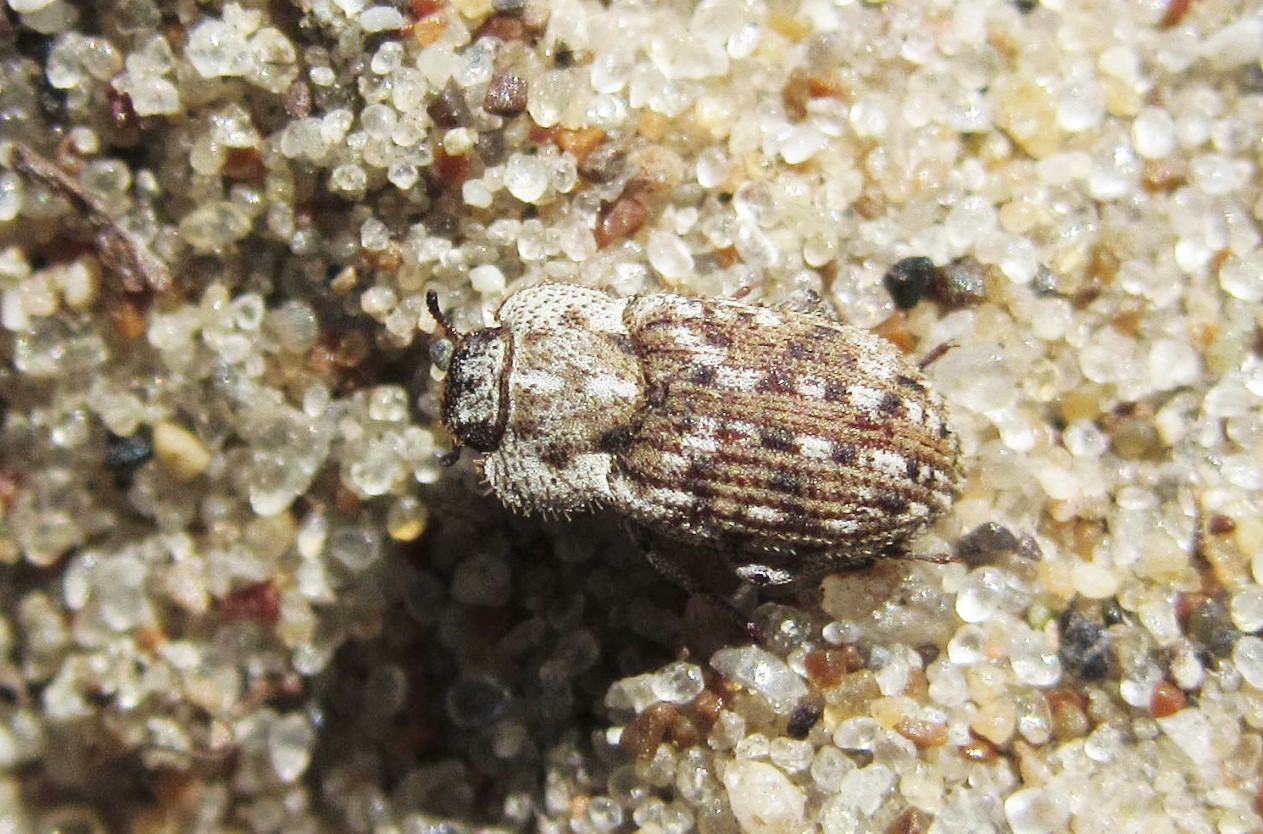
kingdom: Animalia
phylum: Arthropoda
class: Insecta
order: Coleoptera
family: Tenebrionidae
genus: Leichenum
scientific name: Leichenum pictum
